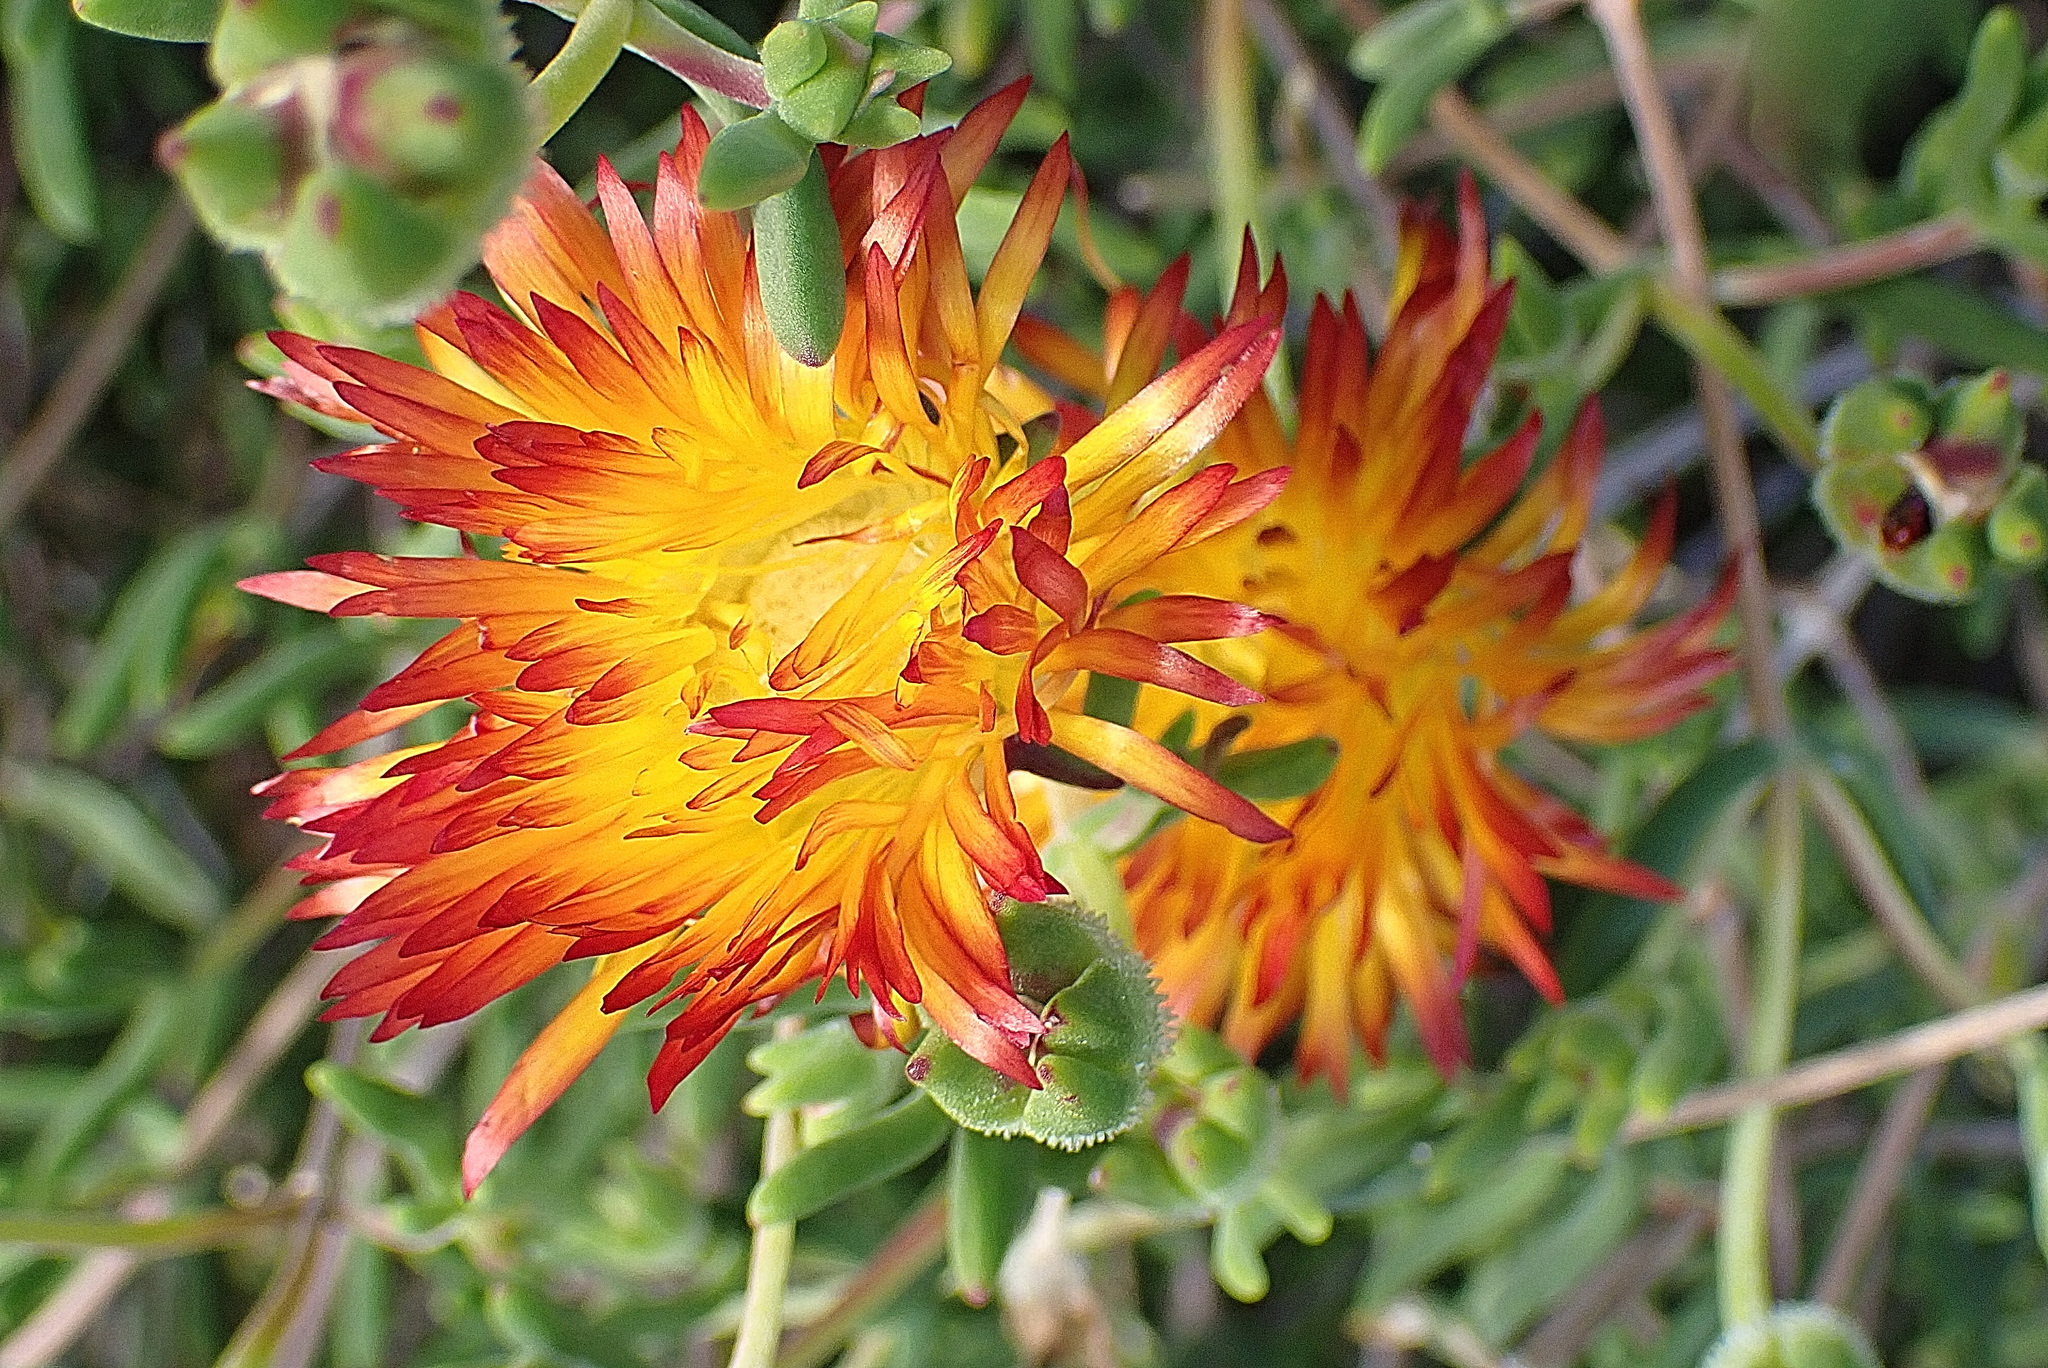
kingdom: Plantae
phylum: Tracheophyta
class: Magnoliopsida
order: Caryophyllales
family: Aizoaceae
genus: Drosanthemum
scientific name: Drosanthemum bicolor
